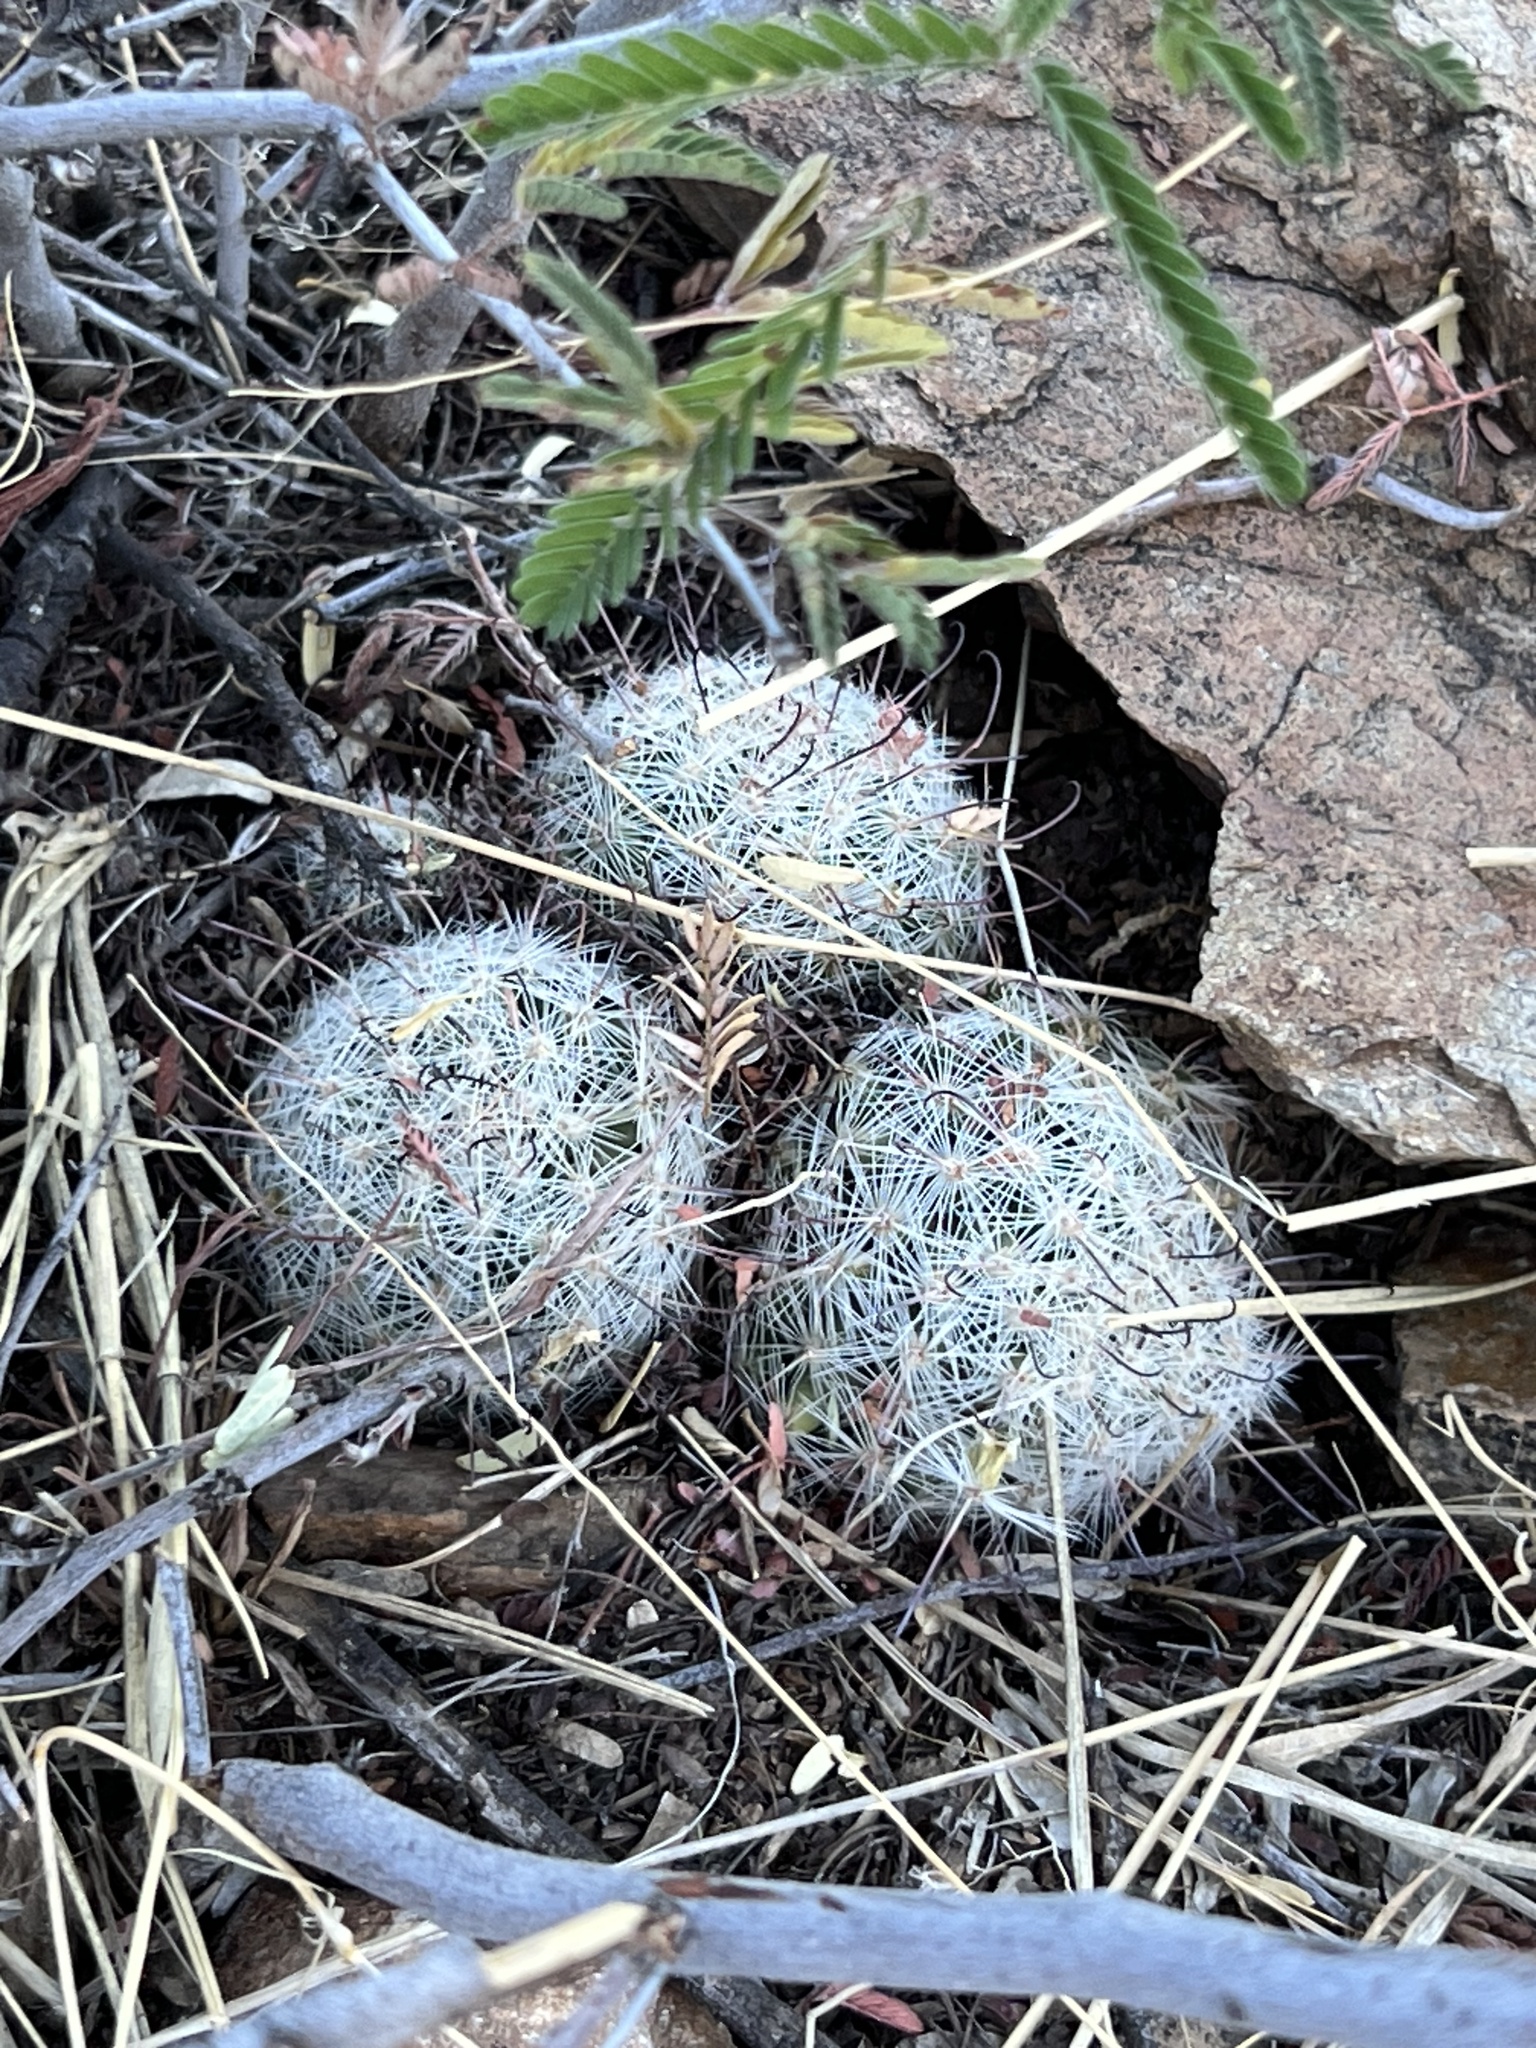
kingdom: Plantae
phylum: Tracheophyta
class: Magnoliopsida
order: Caryophyllales
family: Cactaceae
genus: Cochemiea
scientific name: Cochemiea grahamii
